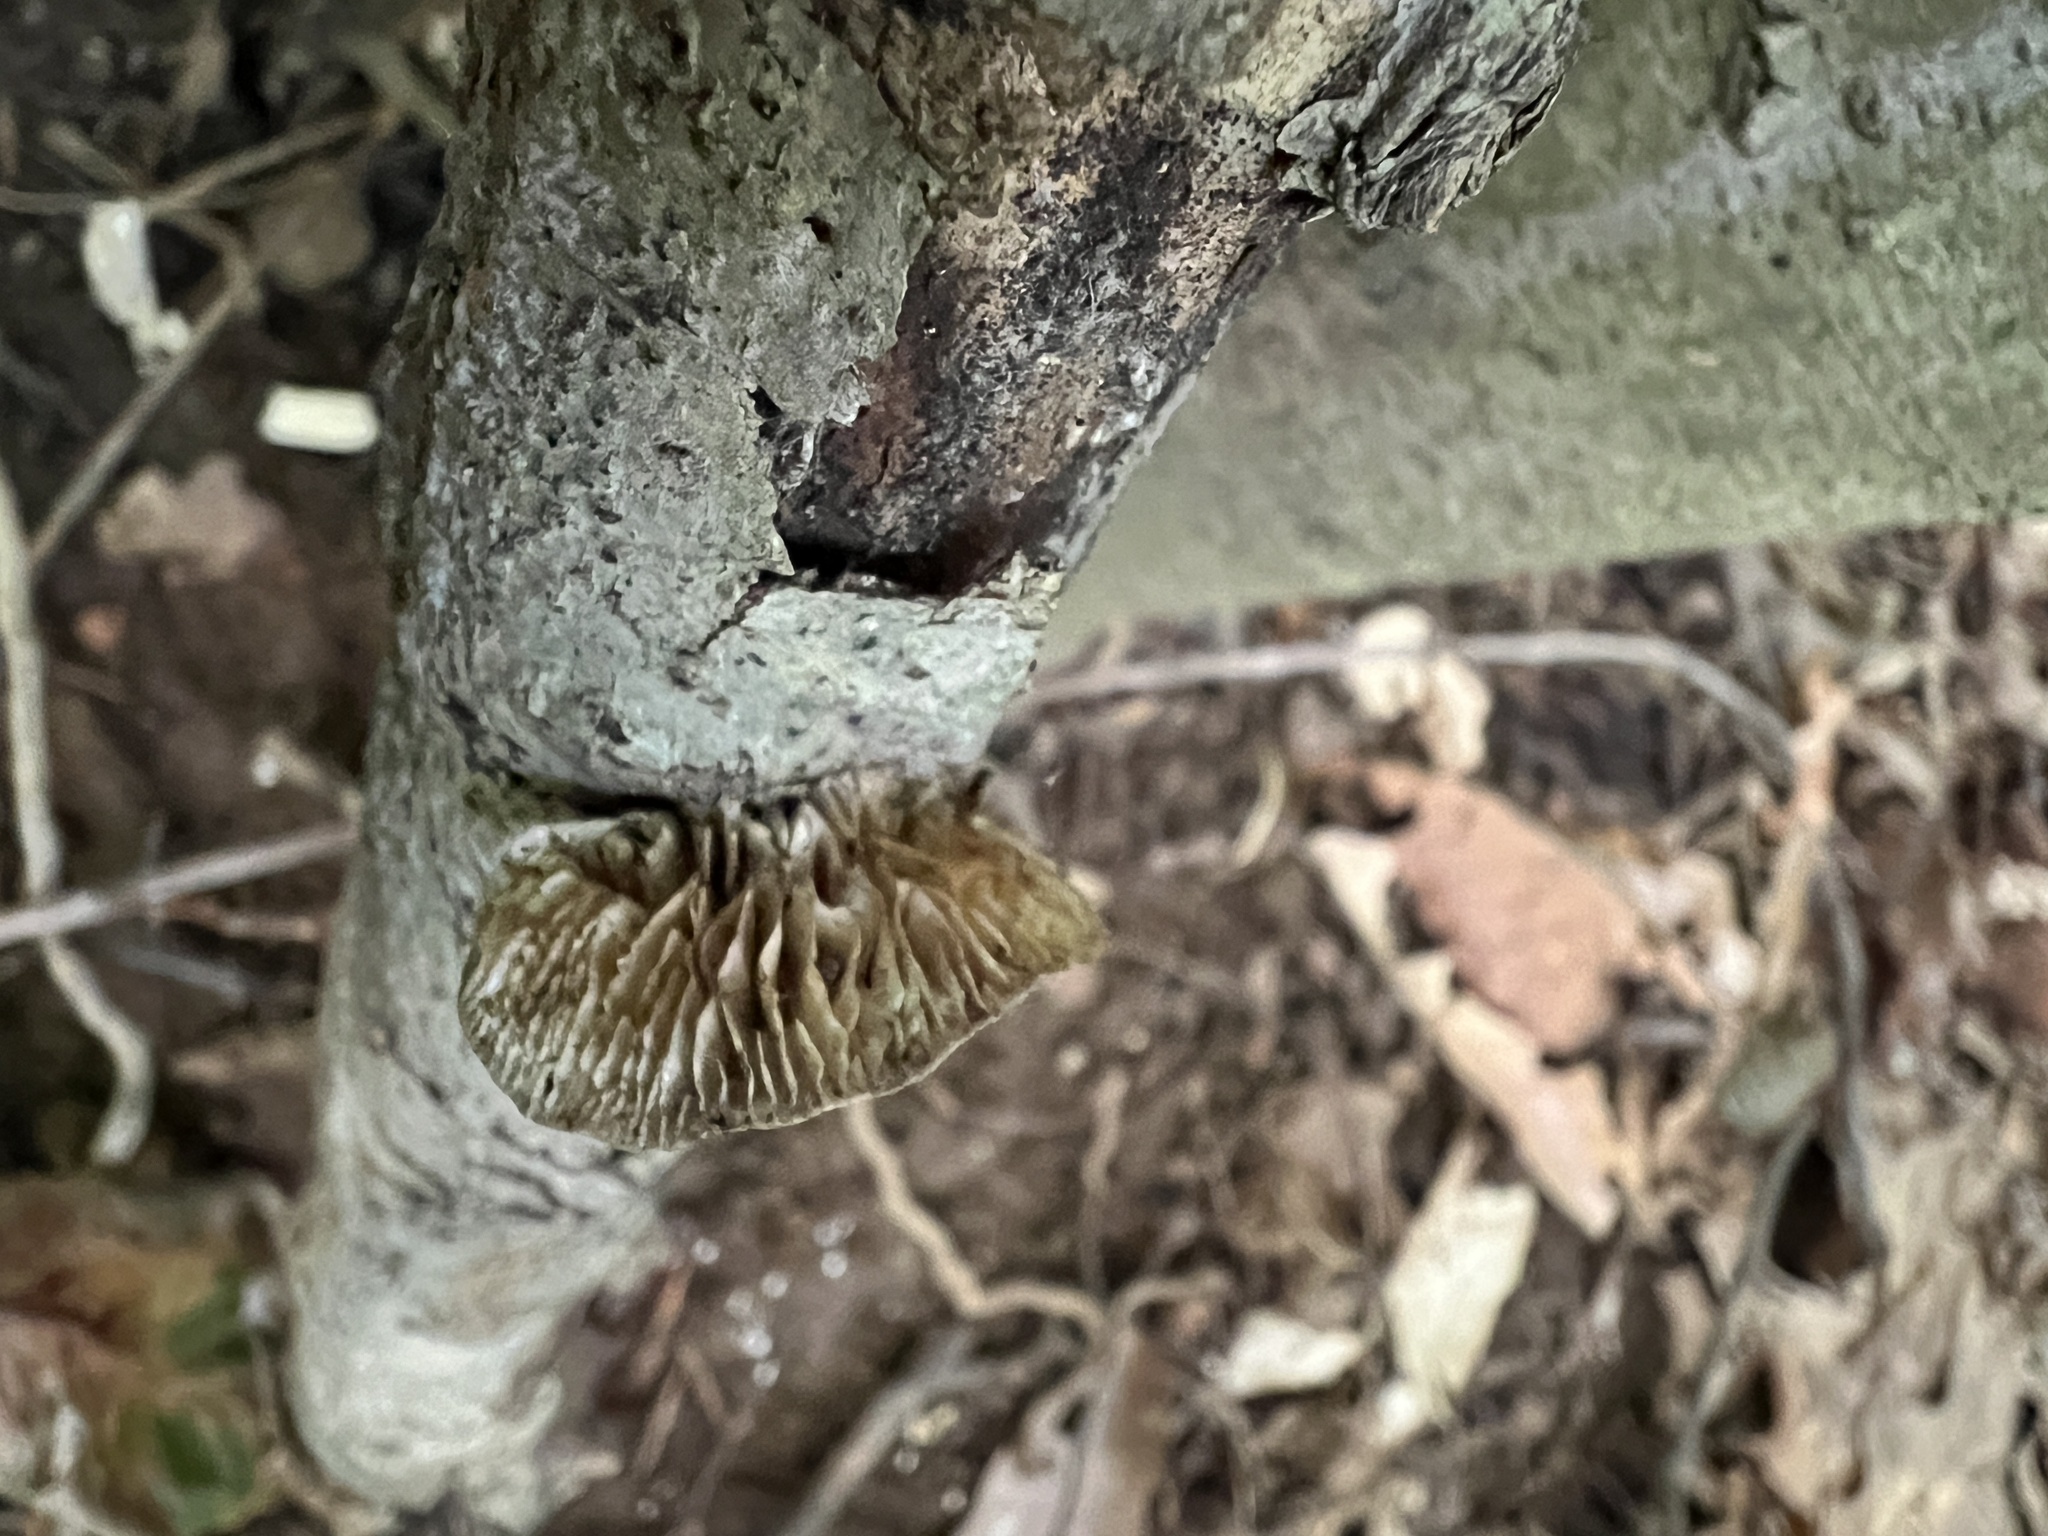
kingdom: Fungi
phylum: Basidiomycota
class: Agaricomycetes
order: Polyporales
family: Polyporaceae
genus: Lenzites
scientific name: Lenzites betulinus
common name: Birch mazegill
